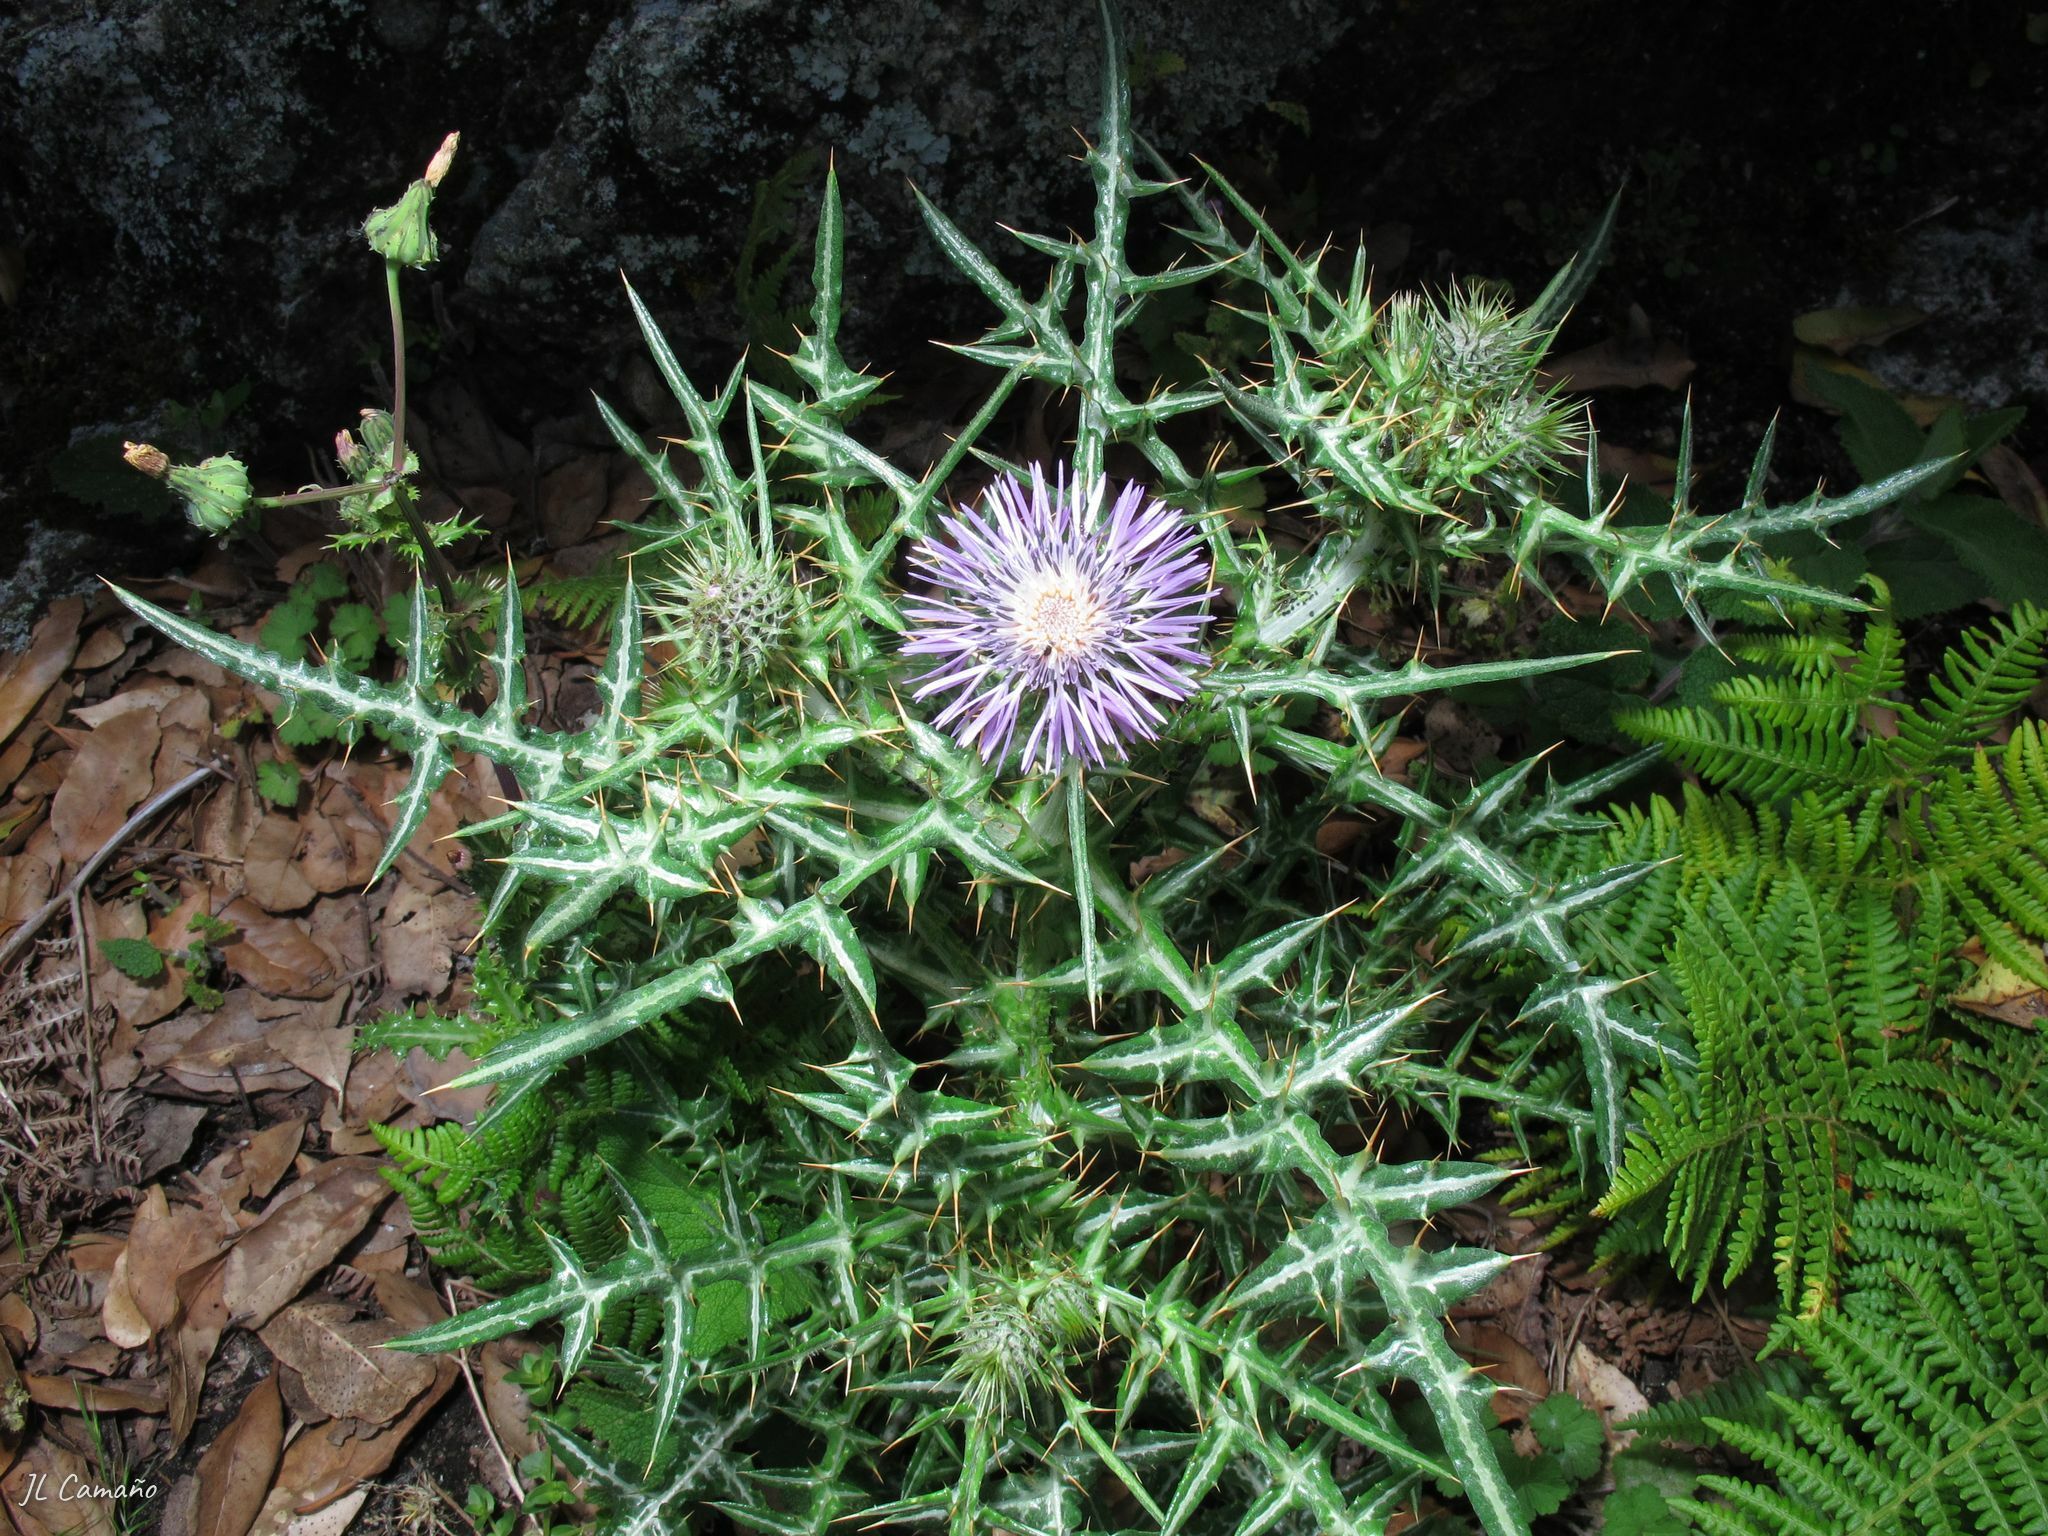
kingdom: Plantae
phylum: Tracheophyta
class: Magnoliopsida
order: Asterales
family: Asteraceae
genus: Galactites
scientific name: Galactites tomentosa
